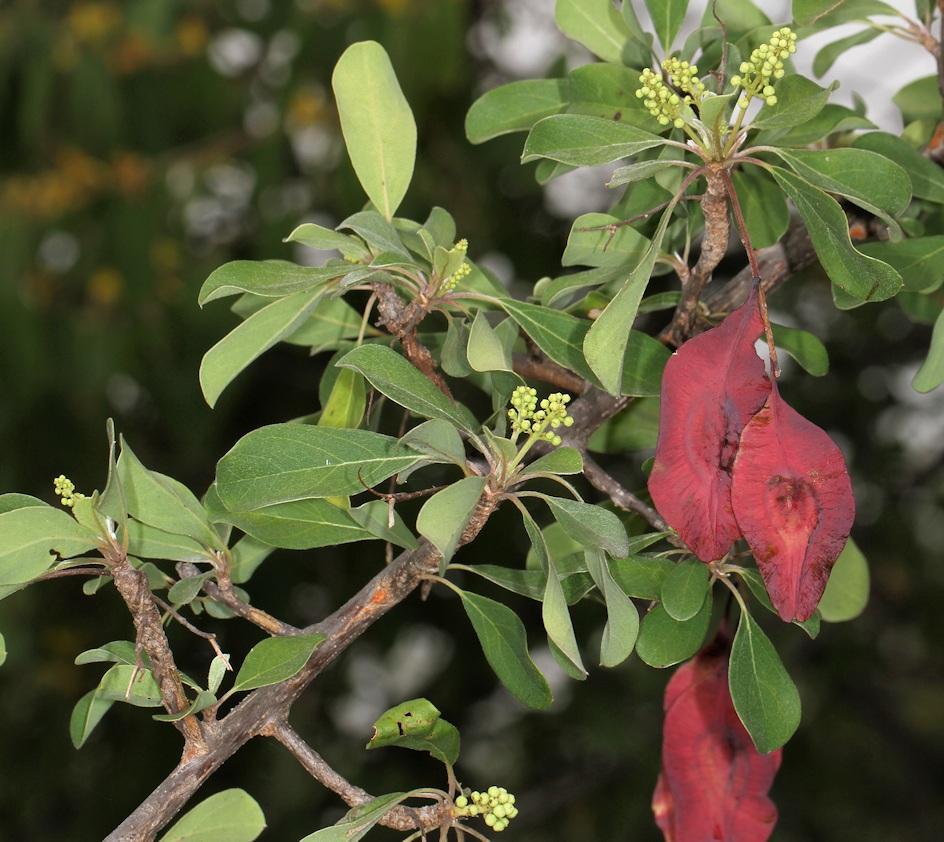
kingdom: Plantae
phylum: Tracheophyta
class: Magnoliopsida
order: Myrtales
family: Combretaceae
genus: Terminalia
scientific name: Terminalia prunioides
